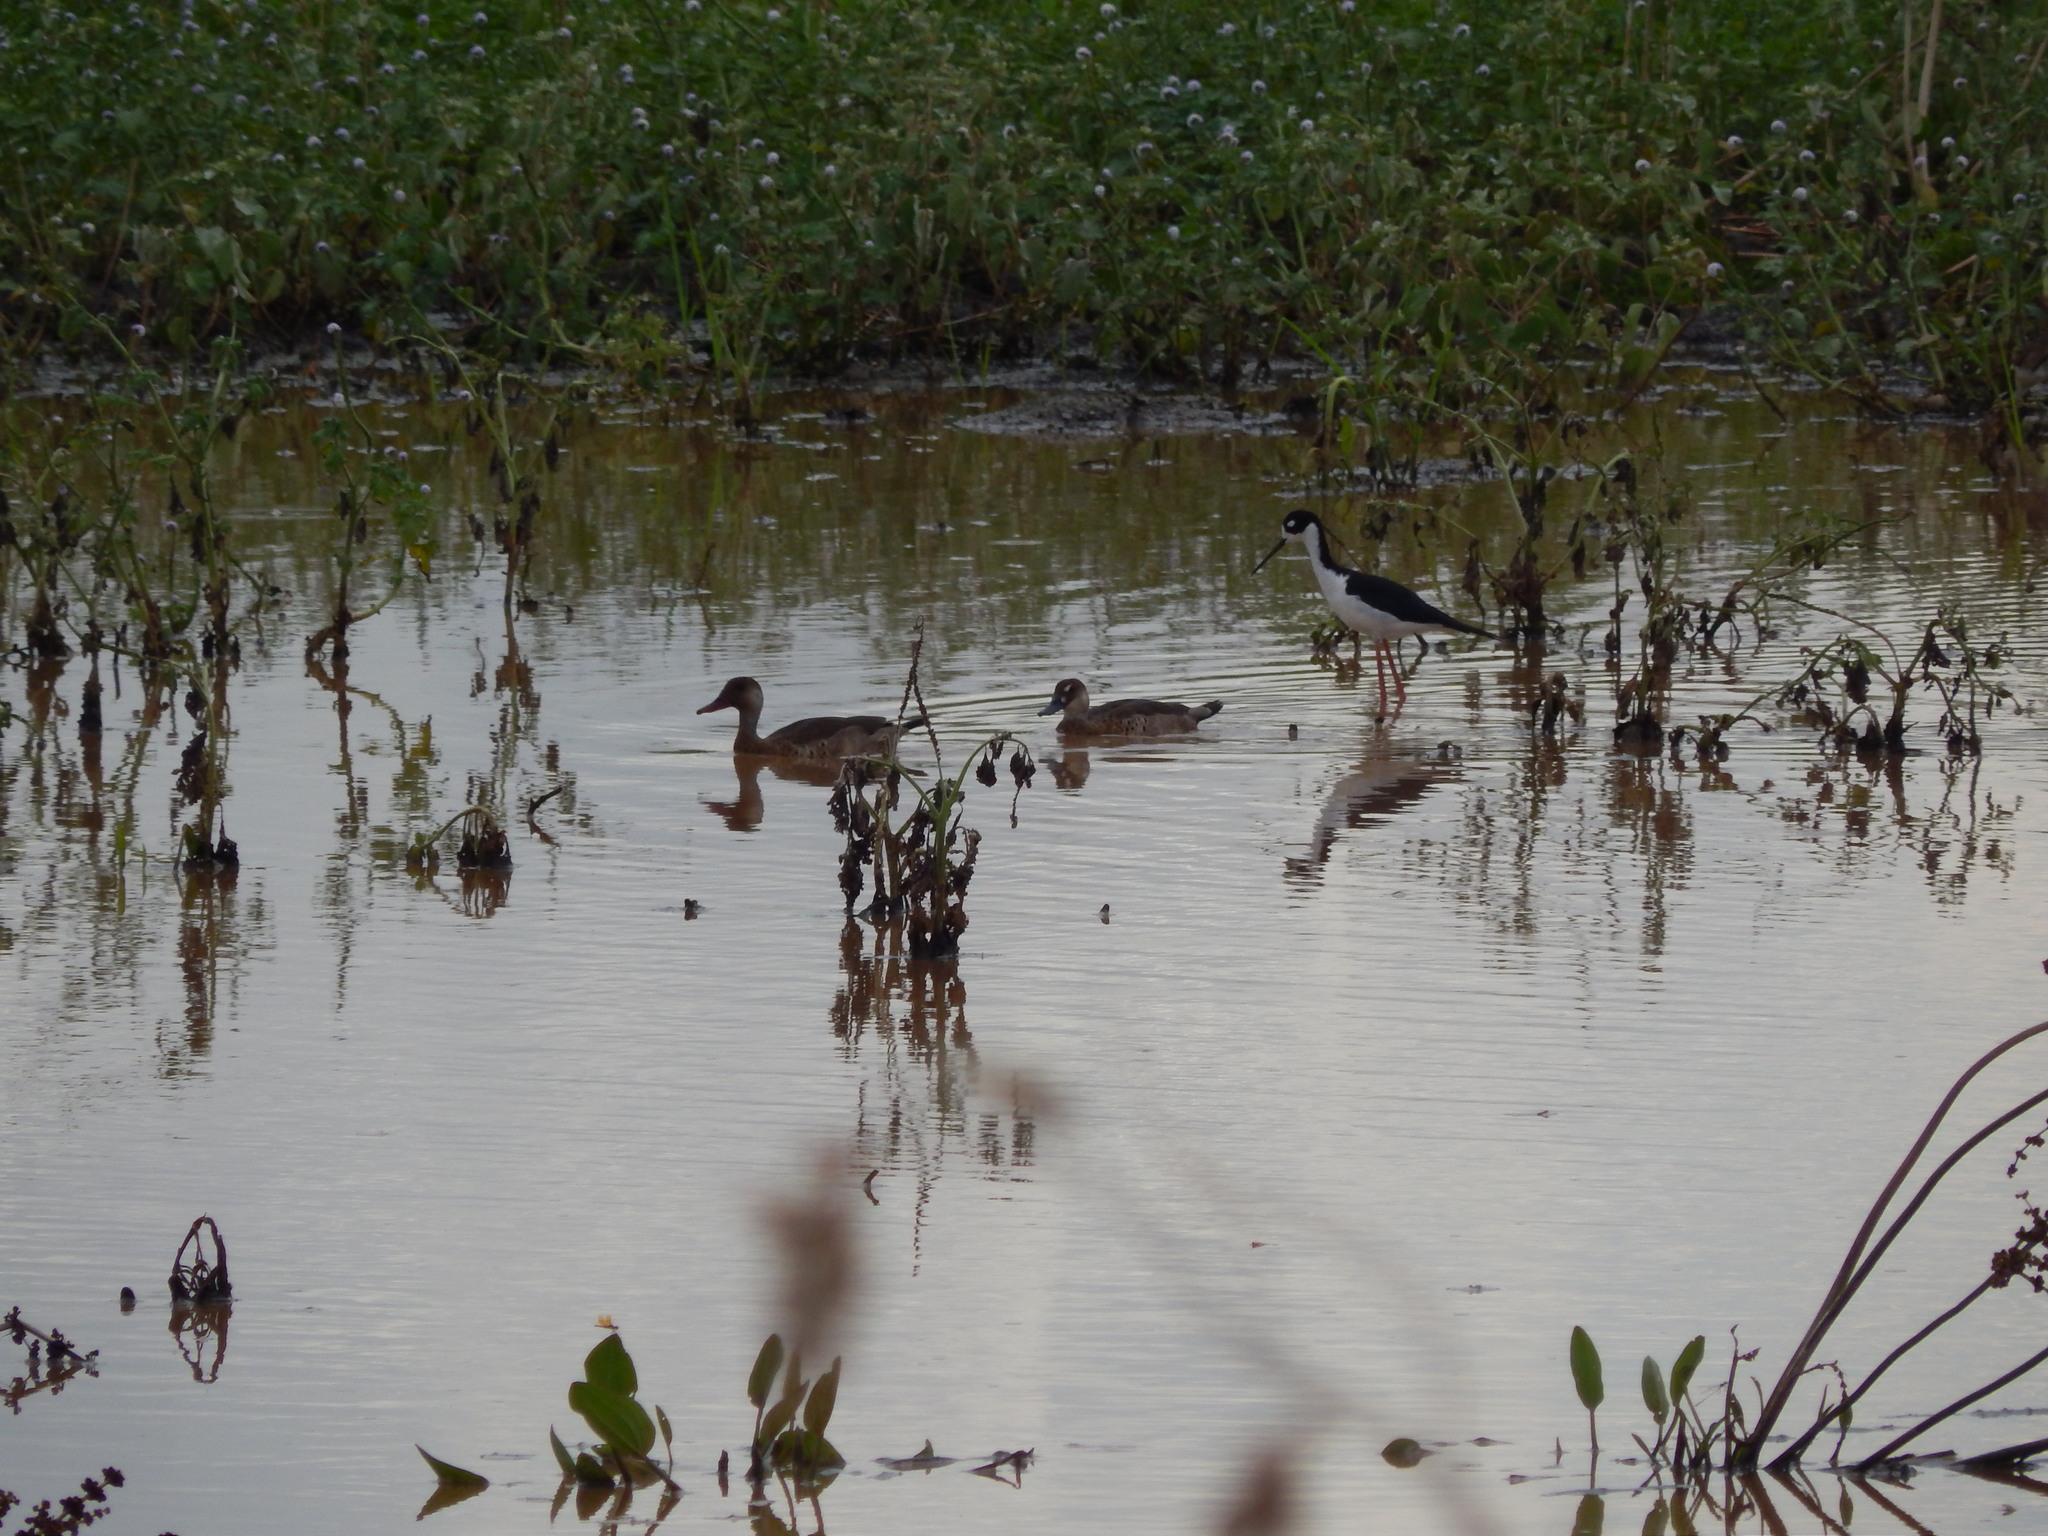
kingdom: Animalia
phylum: Chordata
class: Aves
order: Anseriformes
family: Anatidae
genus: Amazonetta
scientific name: Amazonetta brasiliensis
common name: Brazilian teal
